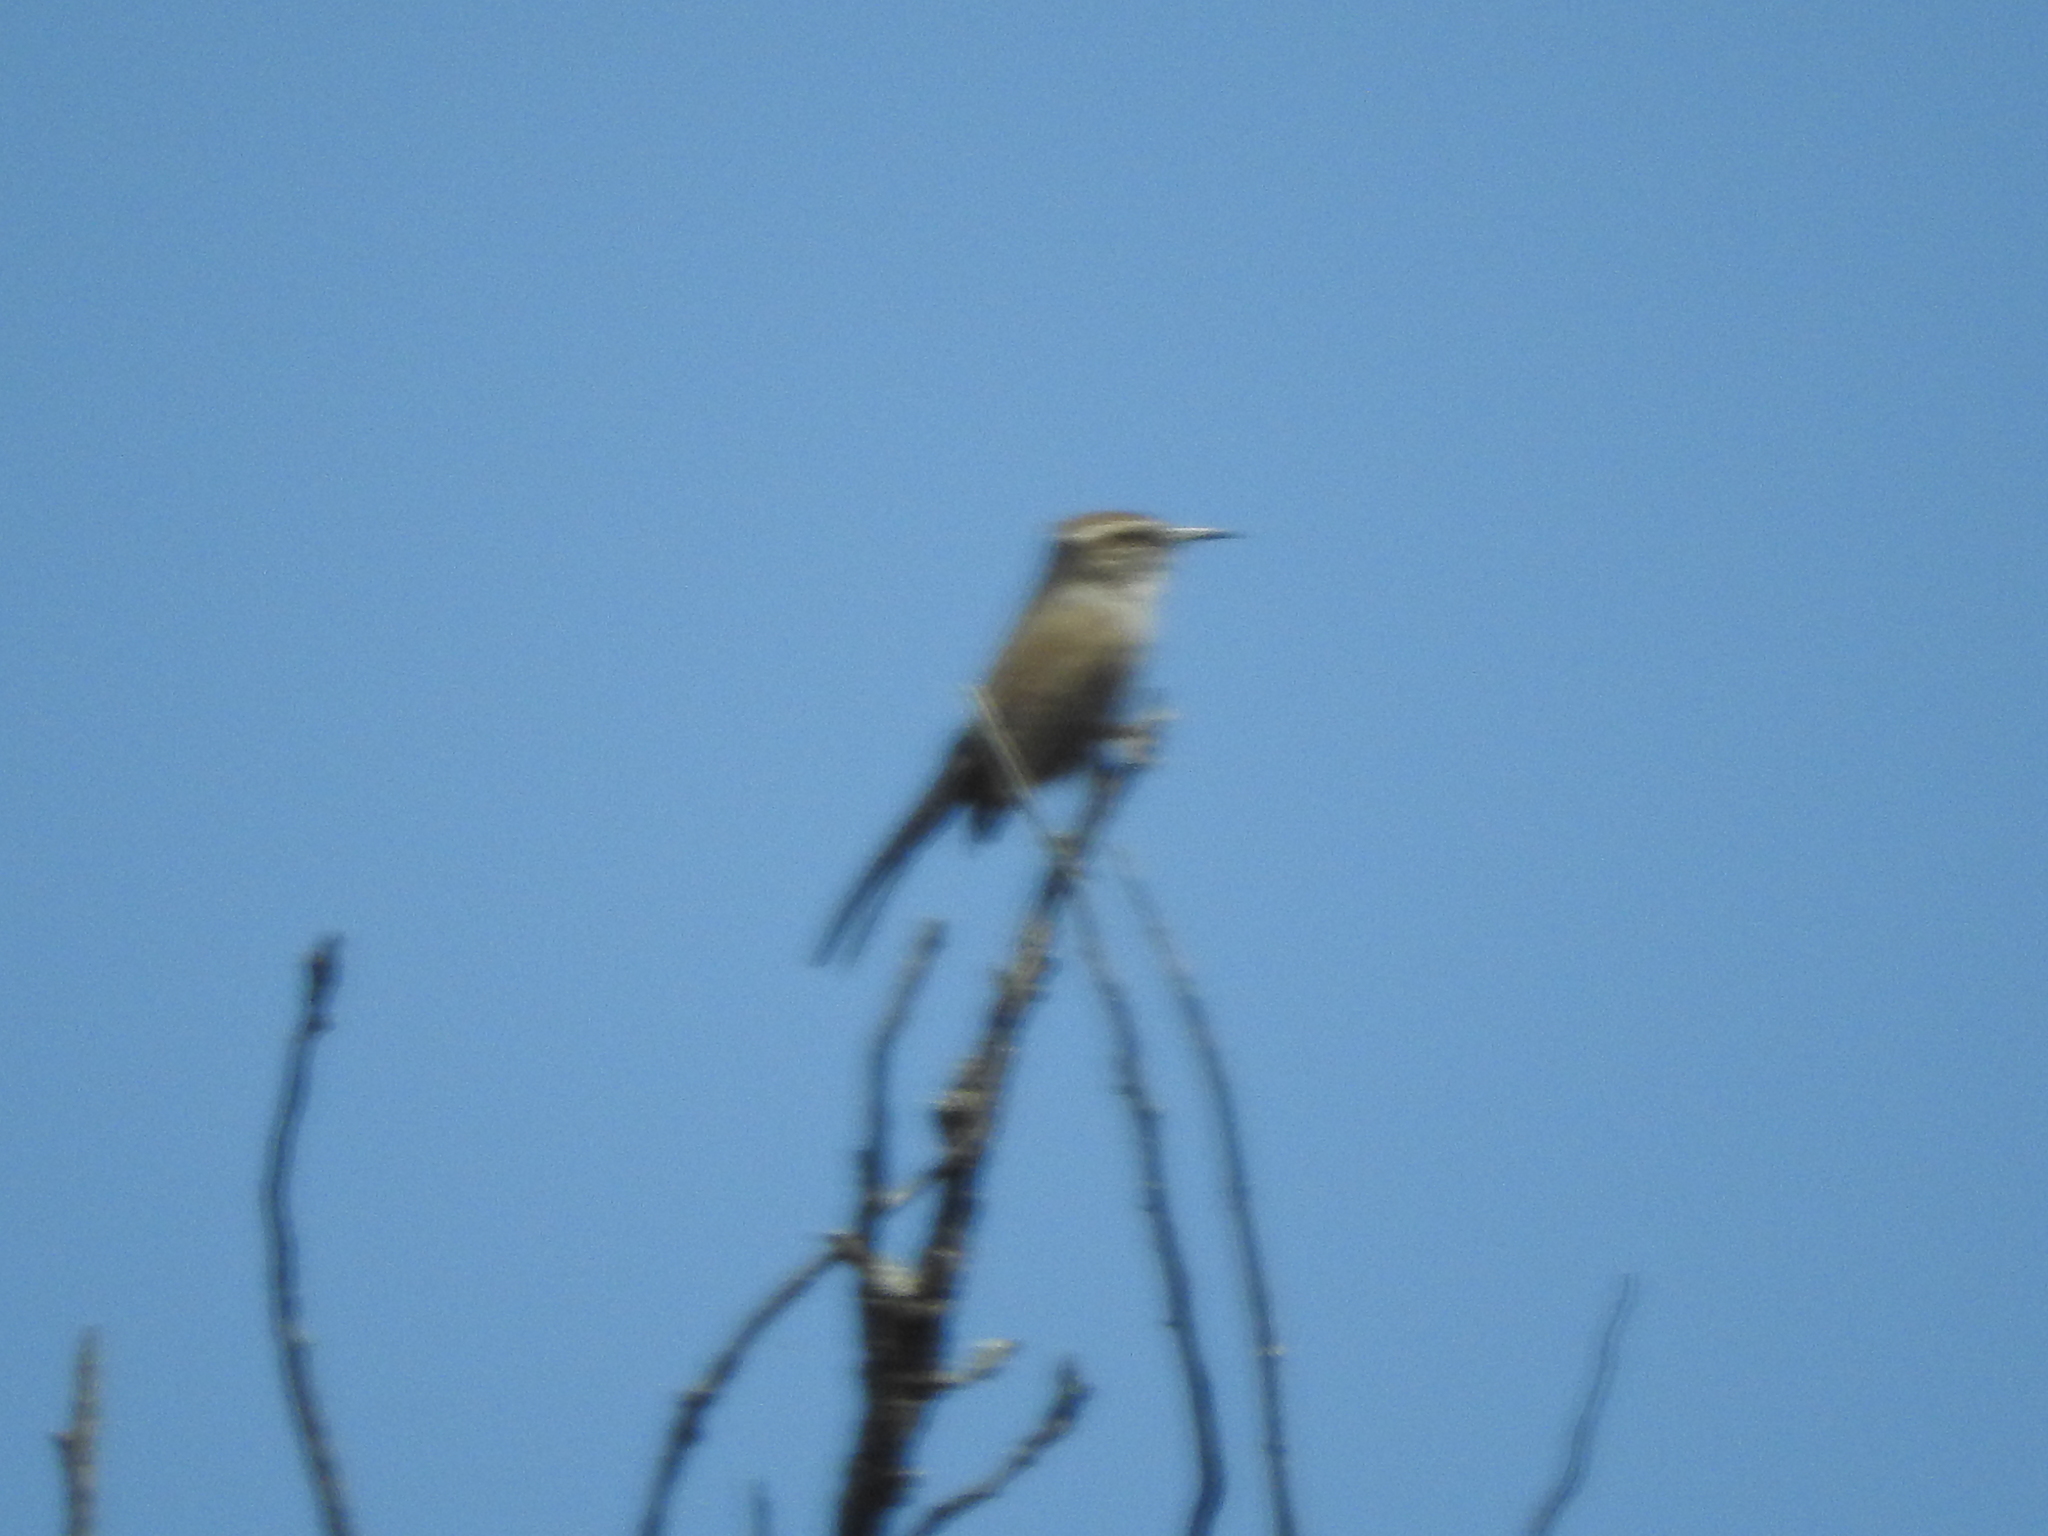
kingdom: Animalia
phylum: Chordata
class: Aves
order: Passeriformes
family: Troglodytidae
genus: Thryomanes
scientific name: Thryomanes bewickii
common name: Bewick's wren
